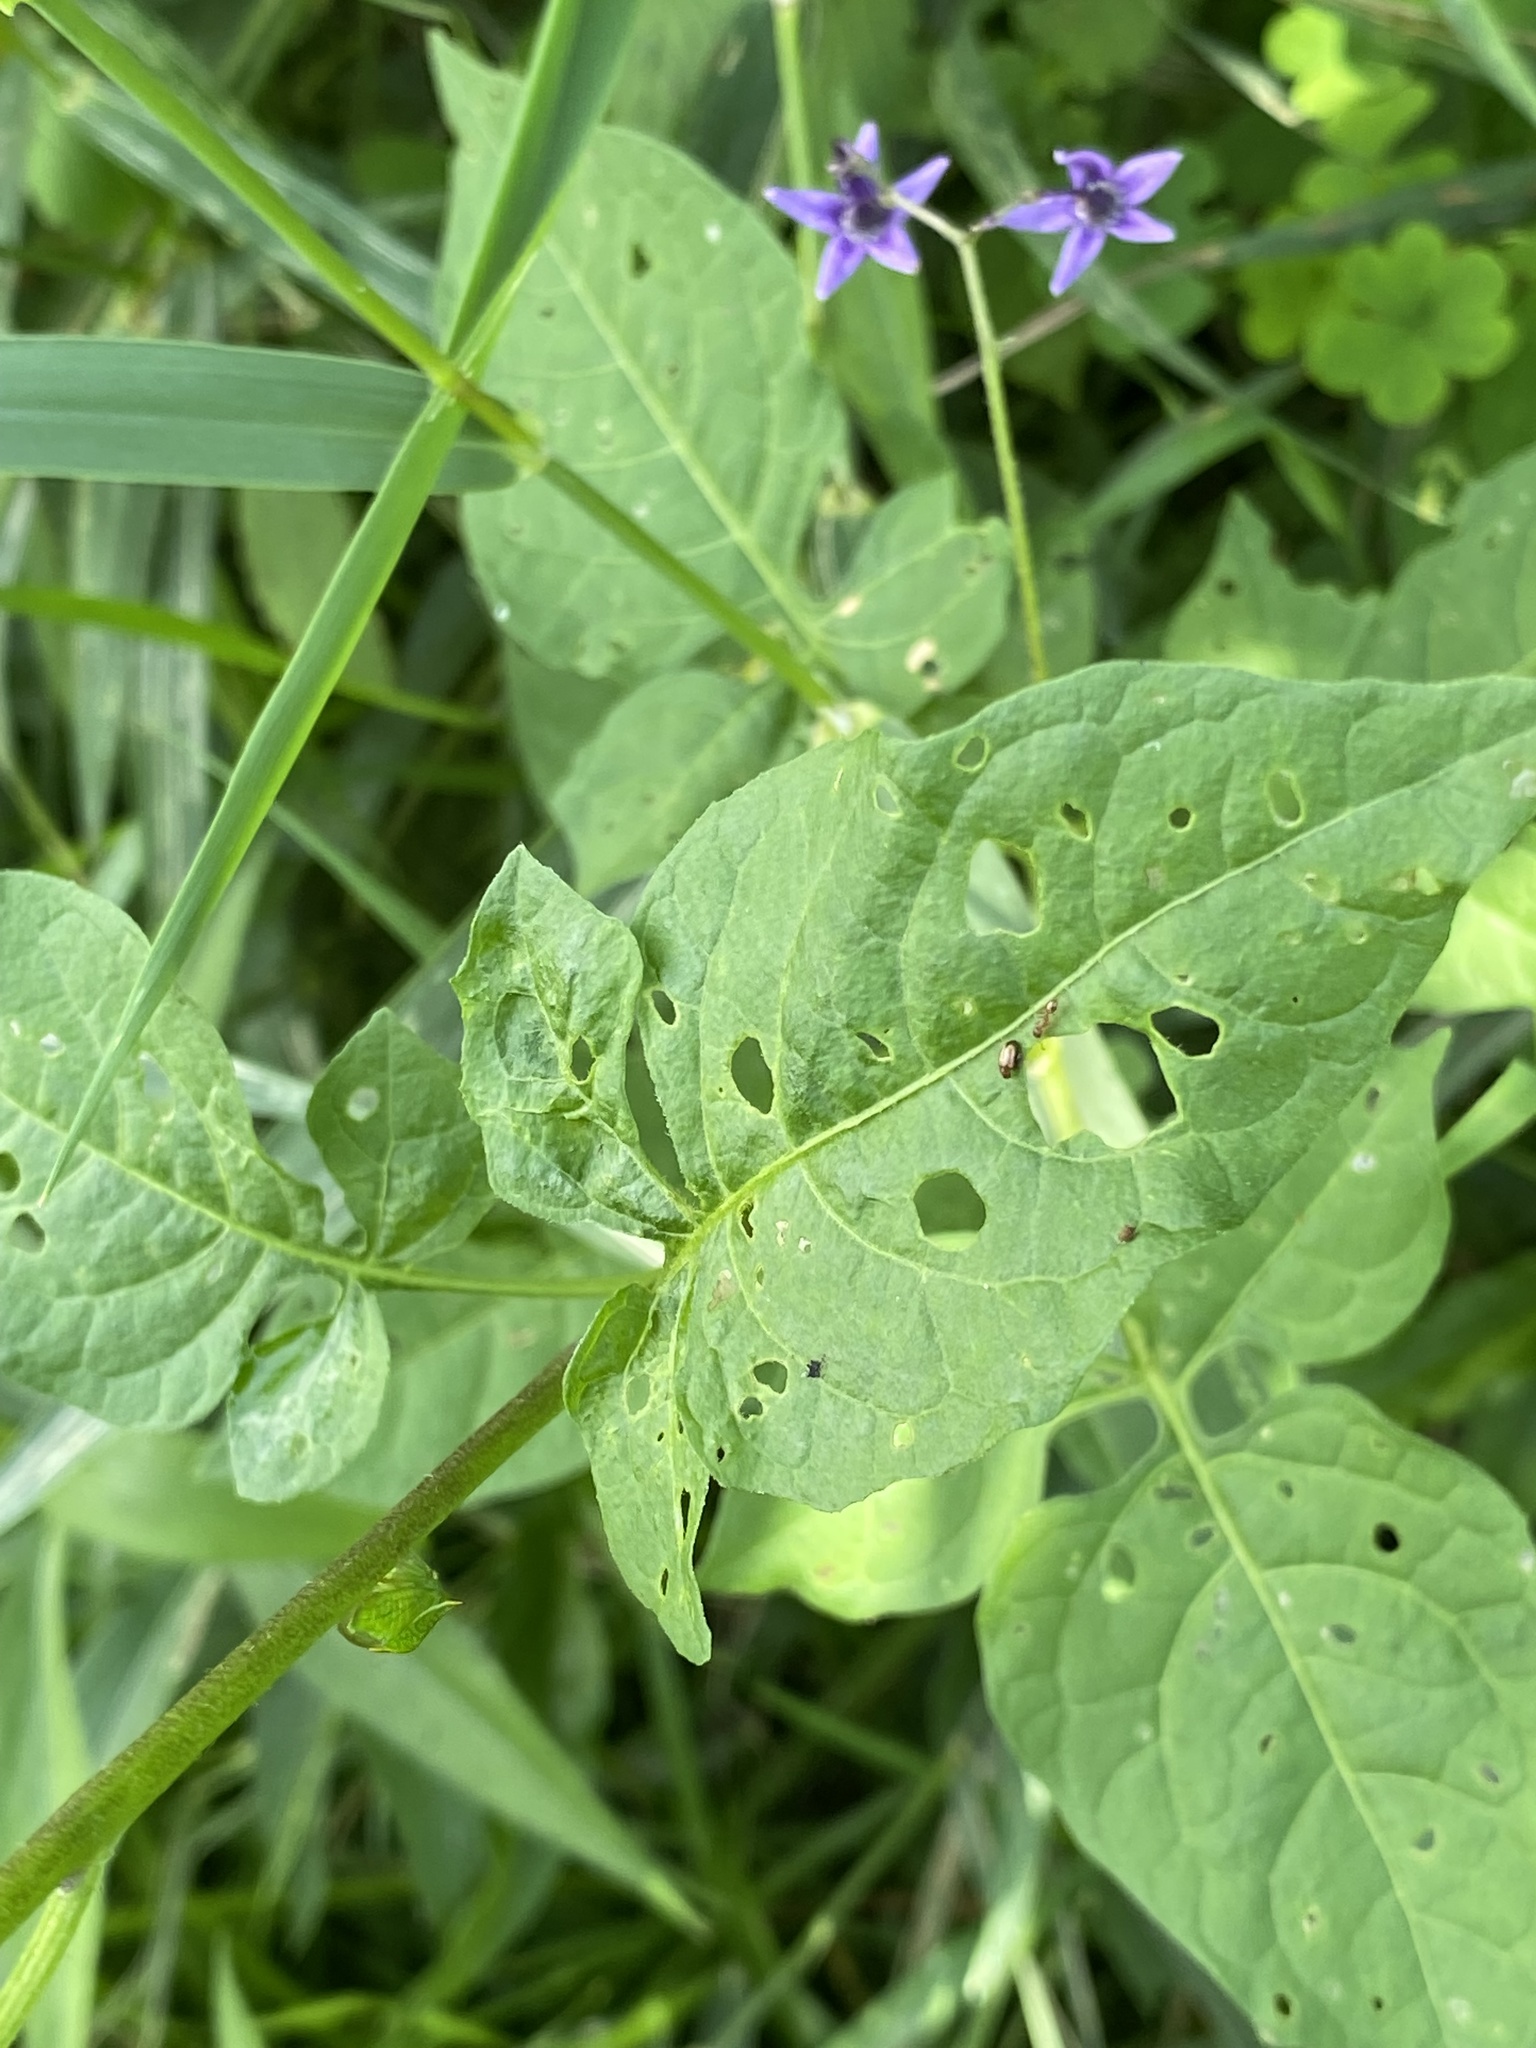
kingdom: Plantae
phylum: Tracheophyta
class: Magnoliopsida
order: Solanales
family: Solanaceae
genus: Solanum
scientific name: Solanum dulcamara
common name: Climbing nightshade
